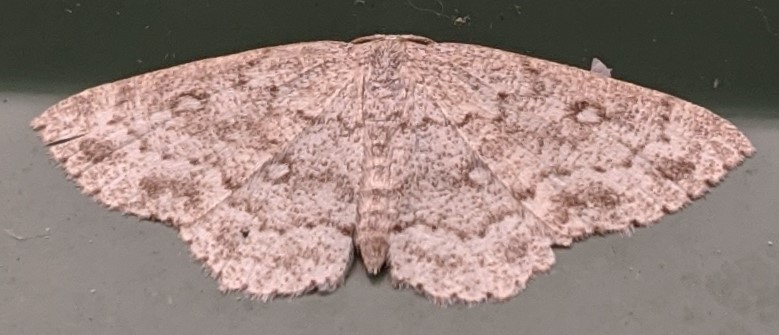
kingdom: Animalia
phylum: Arthropoda
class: Insecta
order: Lepidoptera
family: Geometridae
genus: Cyclophora
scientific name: Cyclophora pendulinaria
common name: Sweet fern geometer
